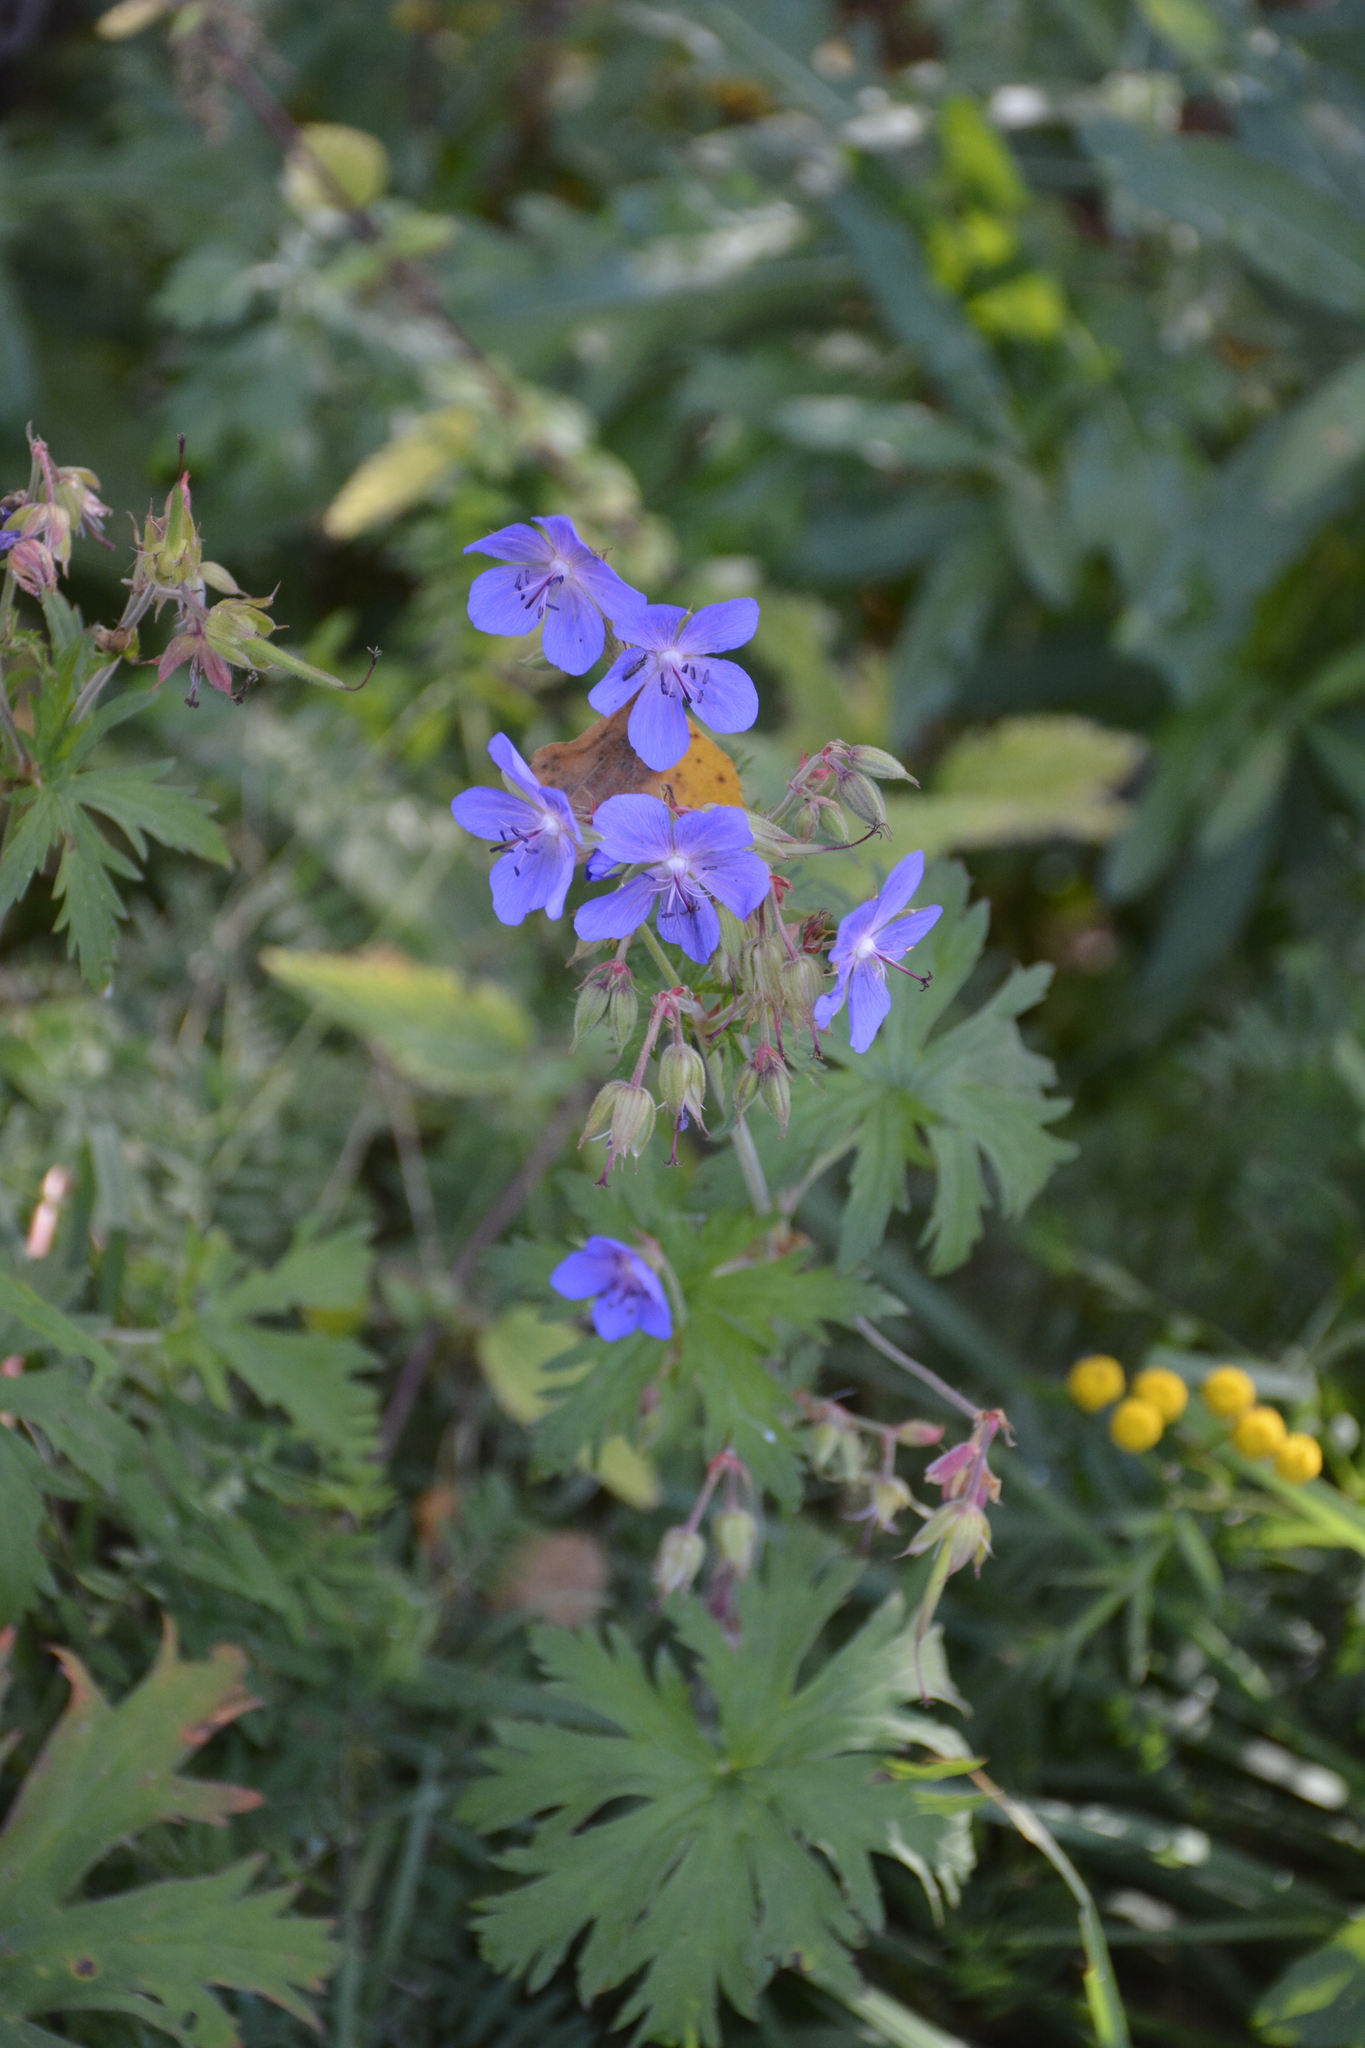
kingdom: Plantae
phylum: Tracheophyta
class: Magnoliopsida
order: Geraniales
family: Geraniaceae
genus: Geranium
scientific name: Geranium pratense
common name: Meadow crane's-bill
